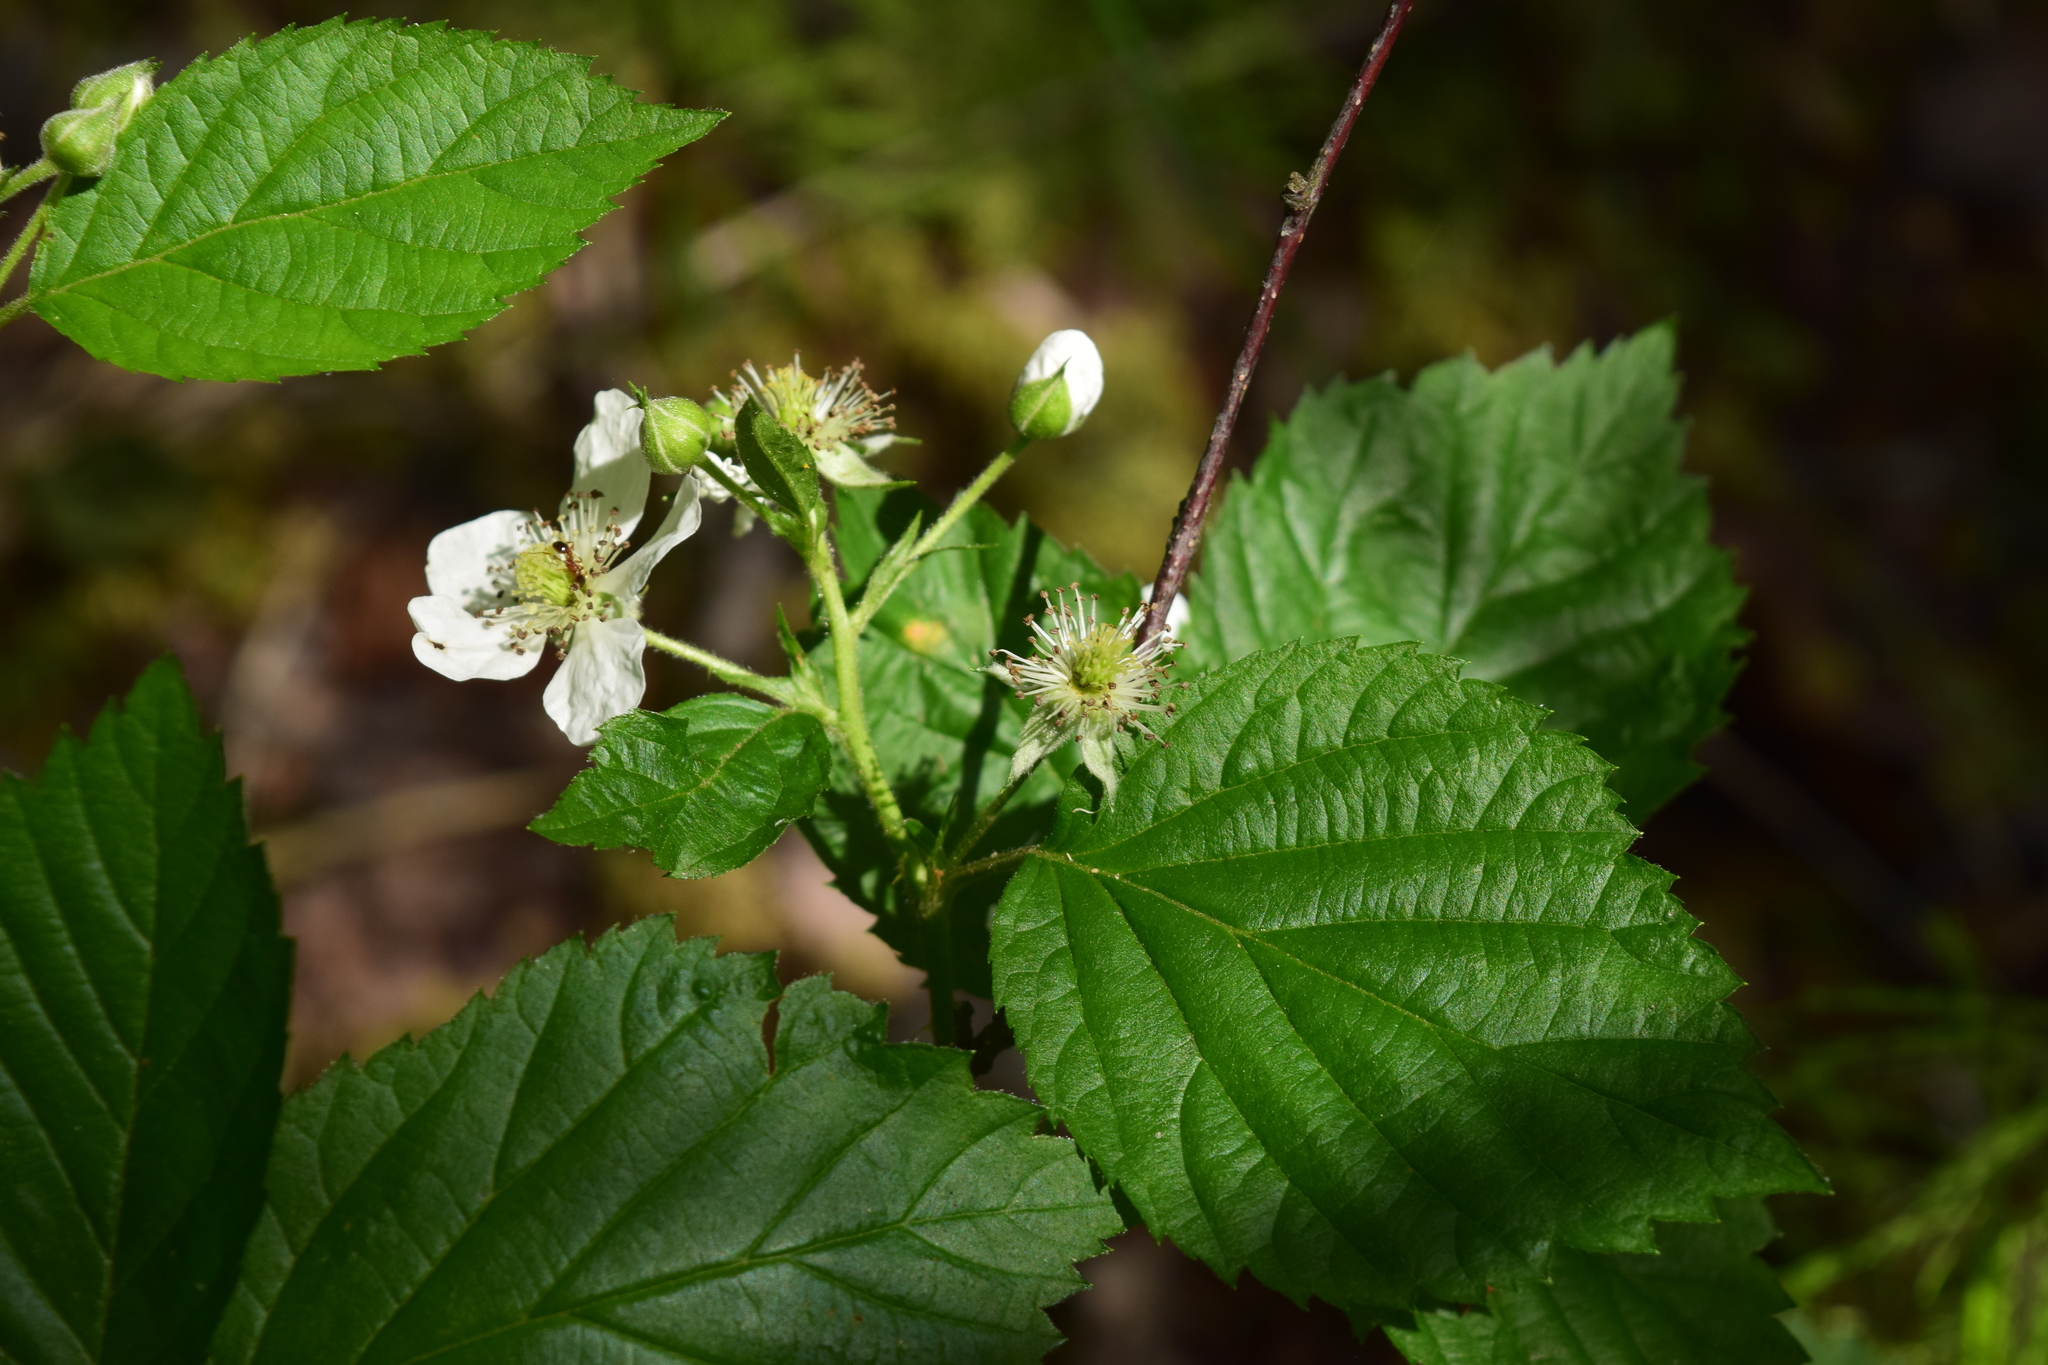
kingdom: Plantae
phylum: Tracheophyta
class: Magnoliopsida
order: Rosales
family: Rosaceae
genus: Rubus
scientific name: Rubus polonicus
